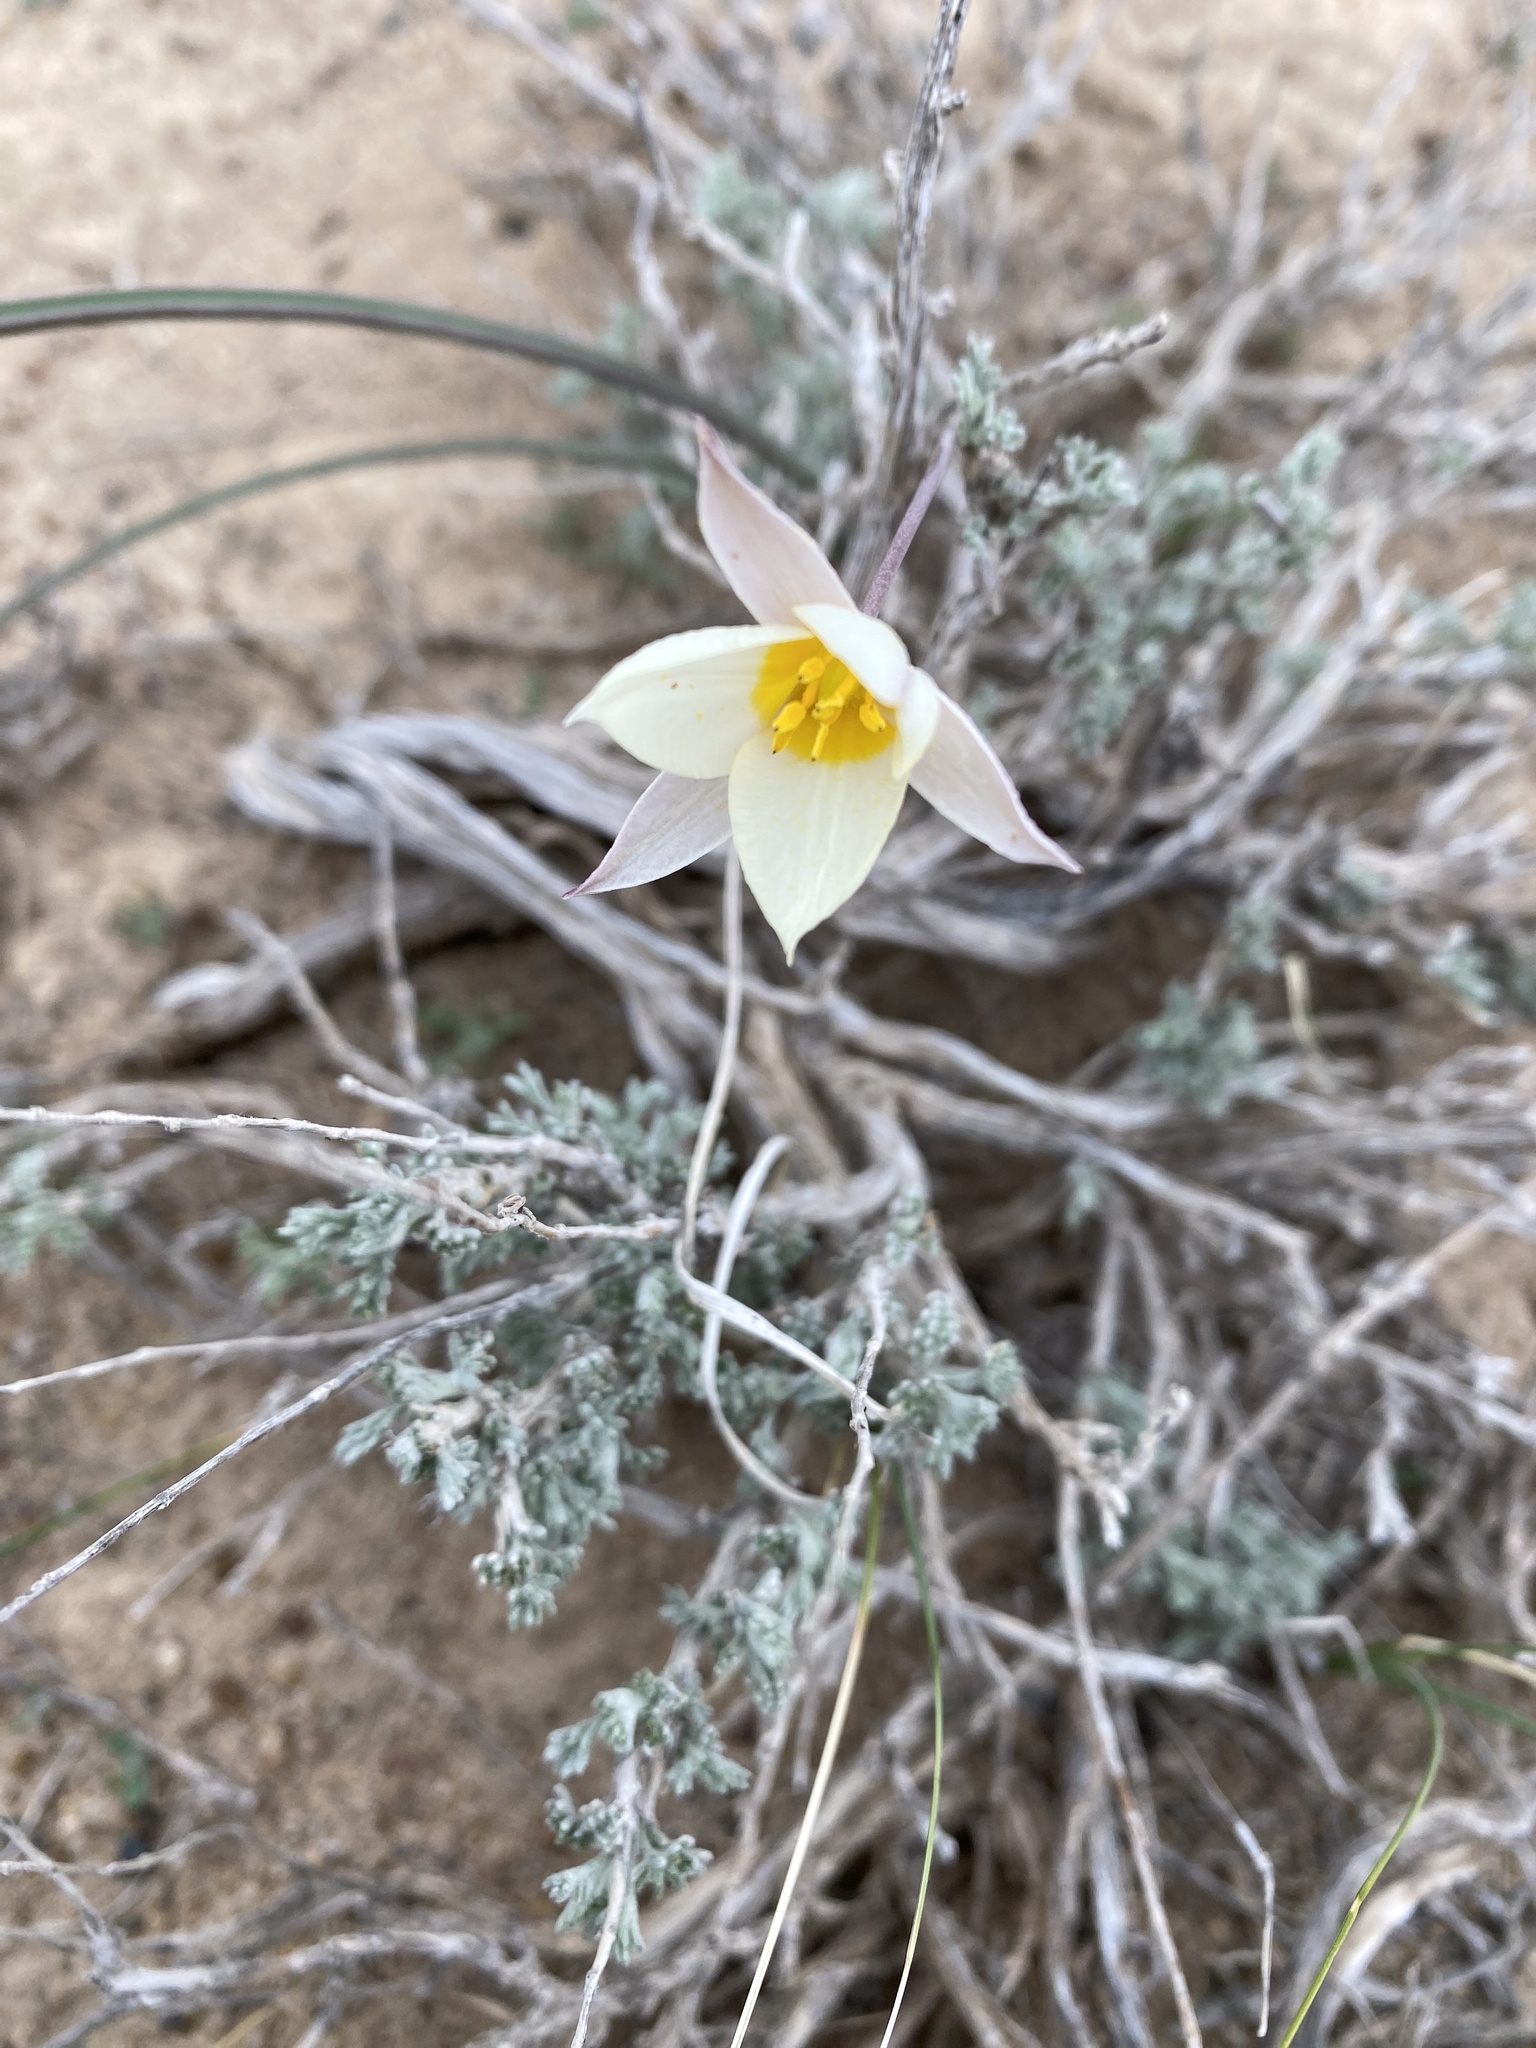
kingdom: Plantae
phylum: Tracheophyta
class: Liliopsida
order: Liliales
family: Liliaceae
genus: Tulipa
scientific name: Tulipa biflora
